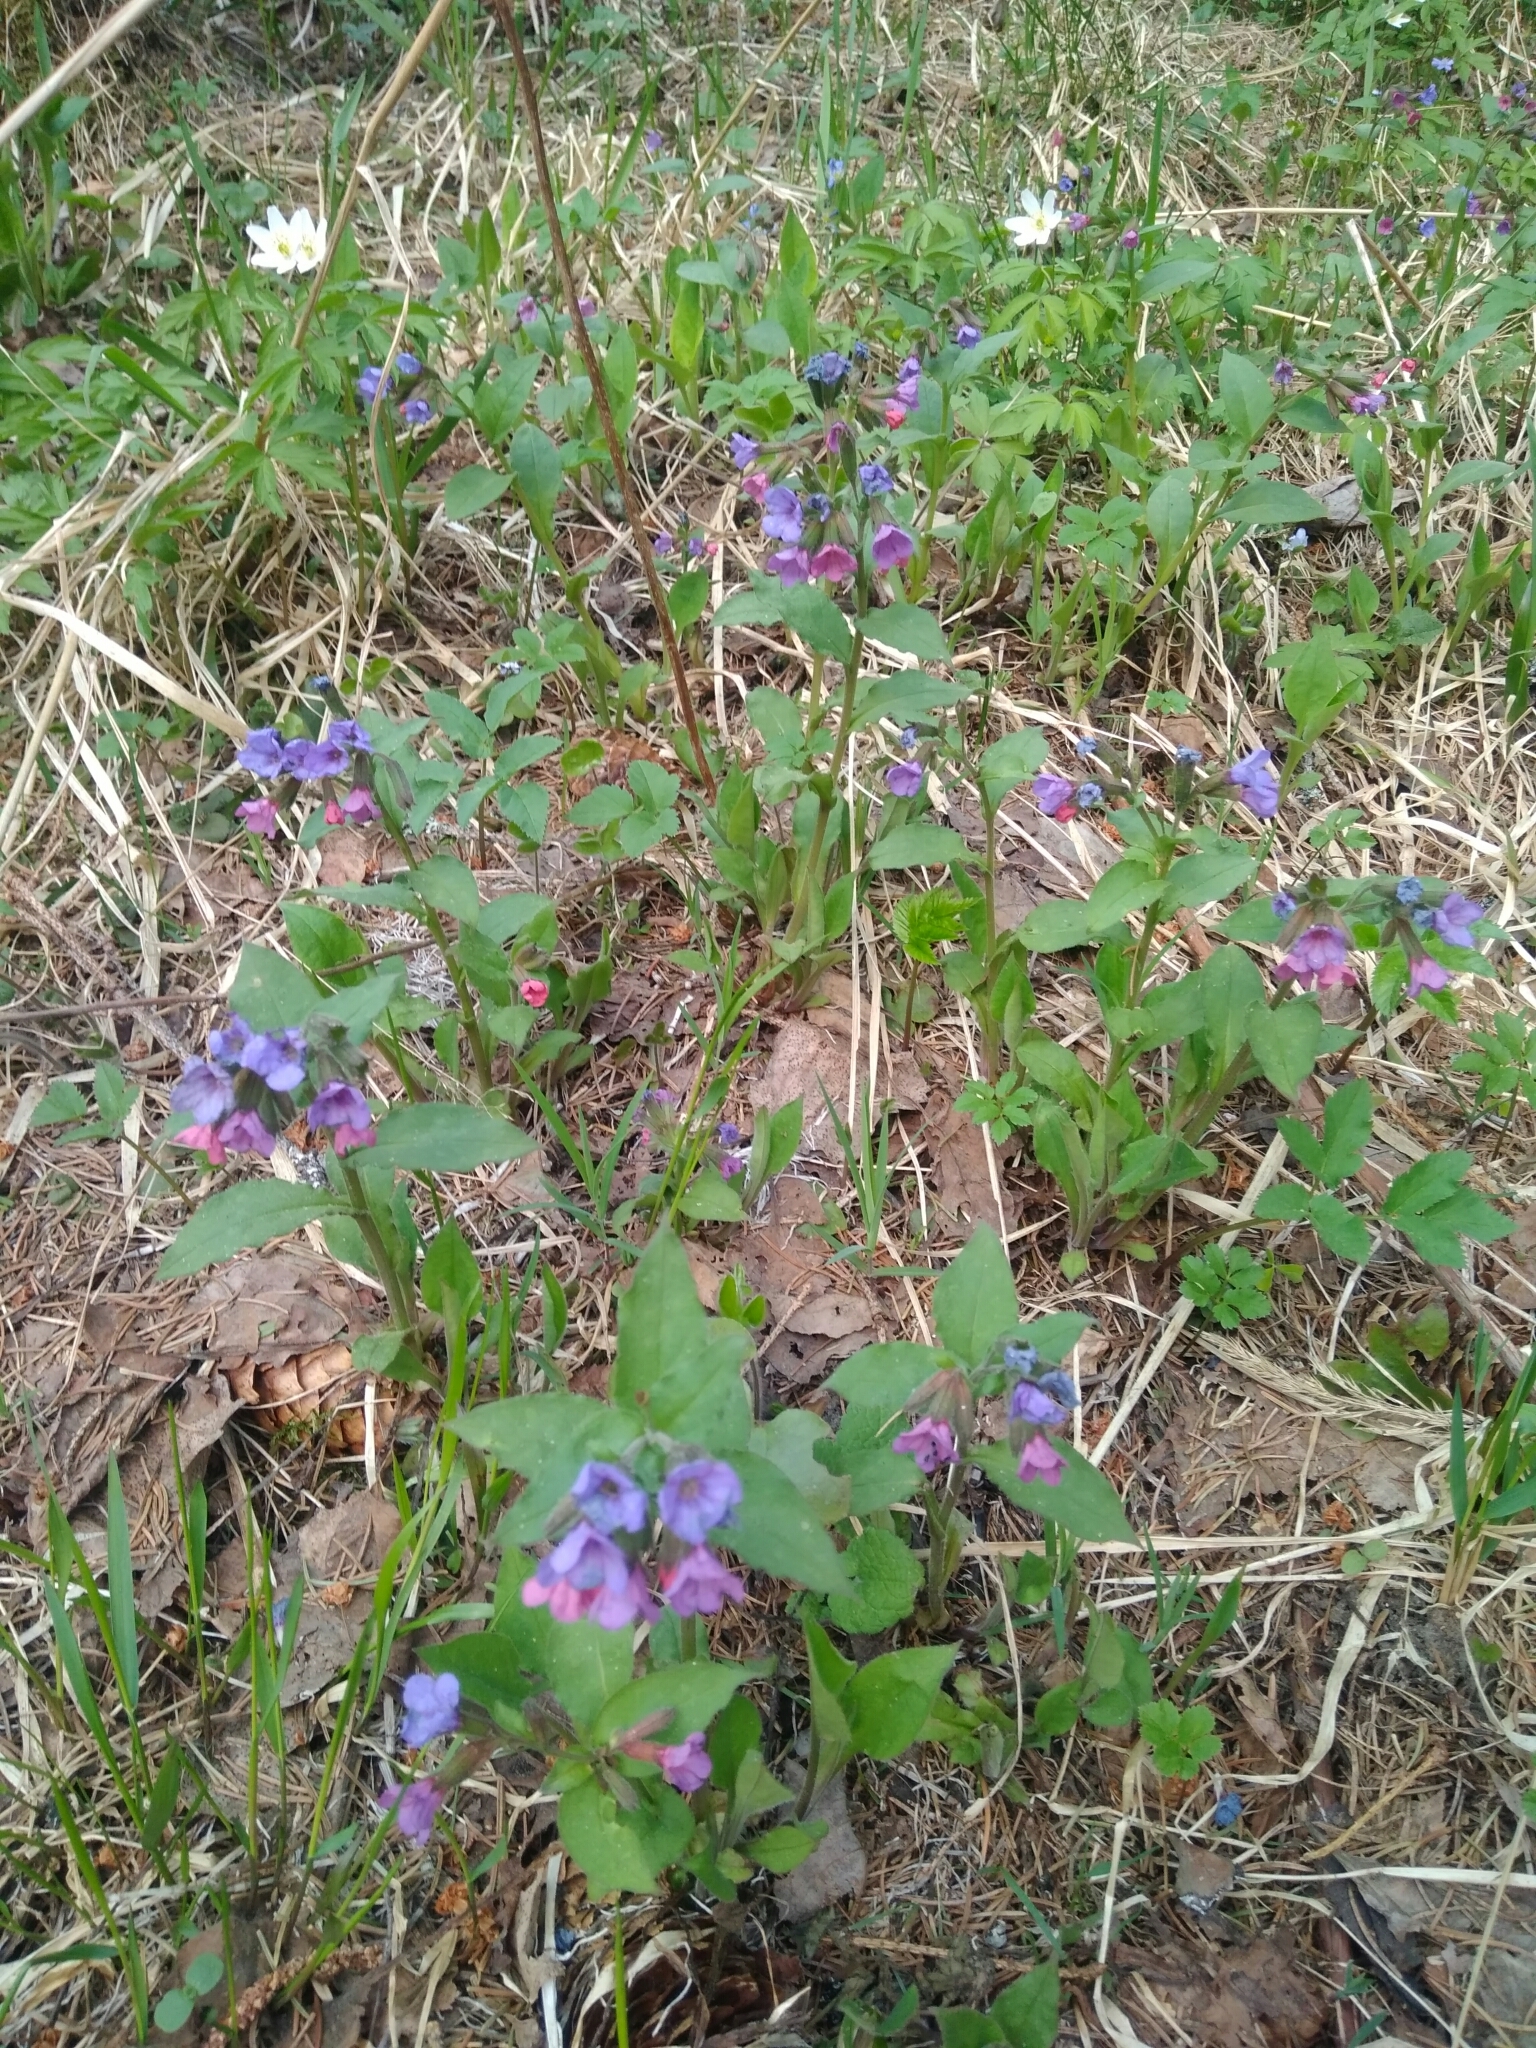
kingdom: Plantae
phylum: Tracheophyta
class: Magnoliopsida
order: Boraginales
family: Boraginaceae
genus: Pulmonaria
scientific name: Pulmonaria obscura
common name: Suffolk lungwort
